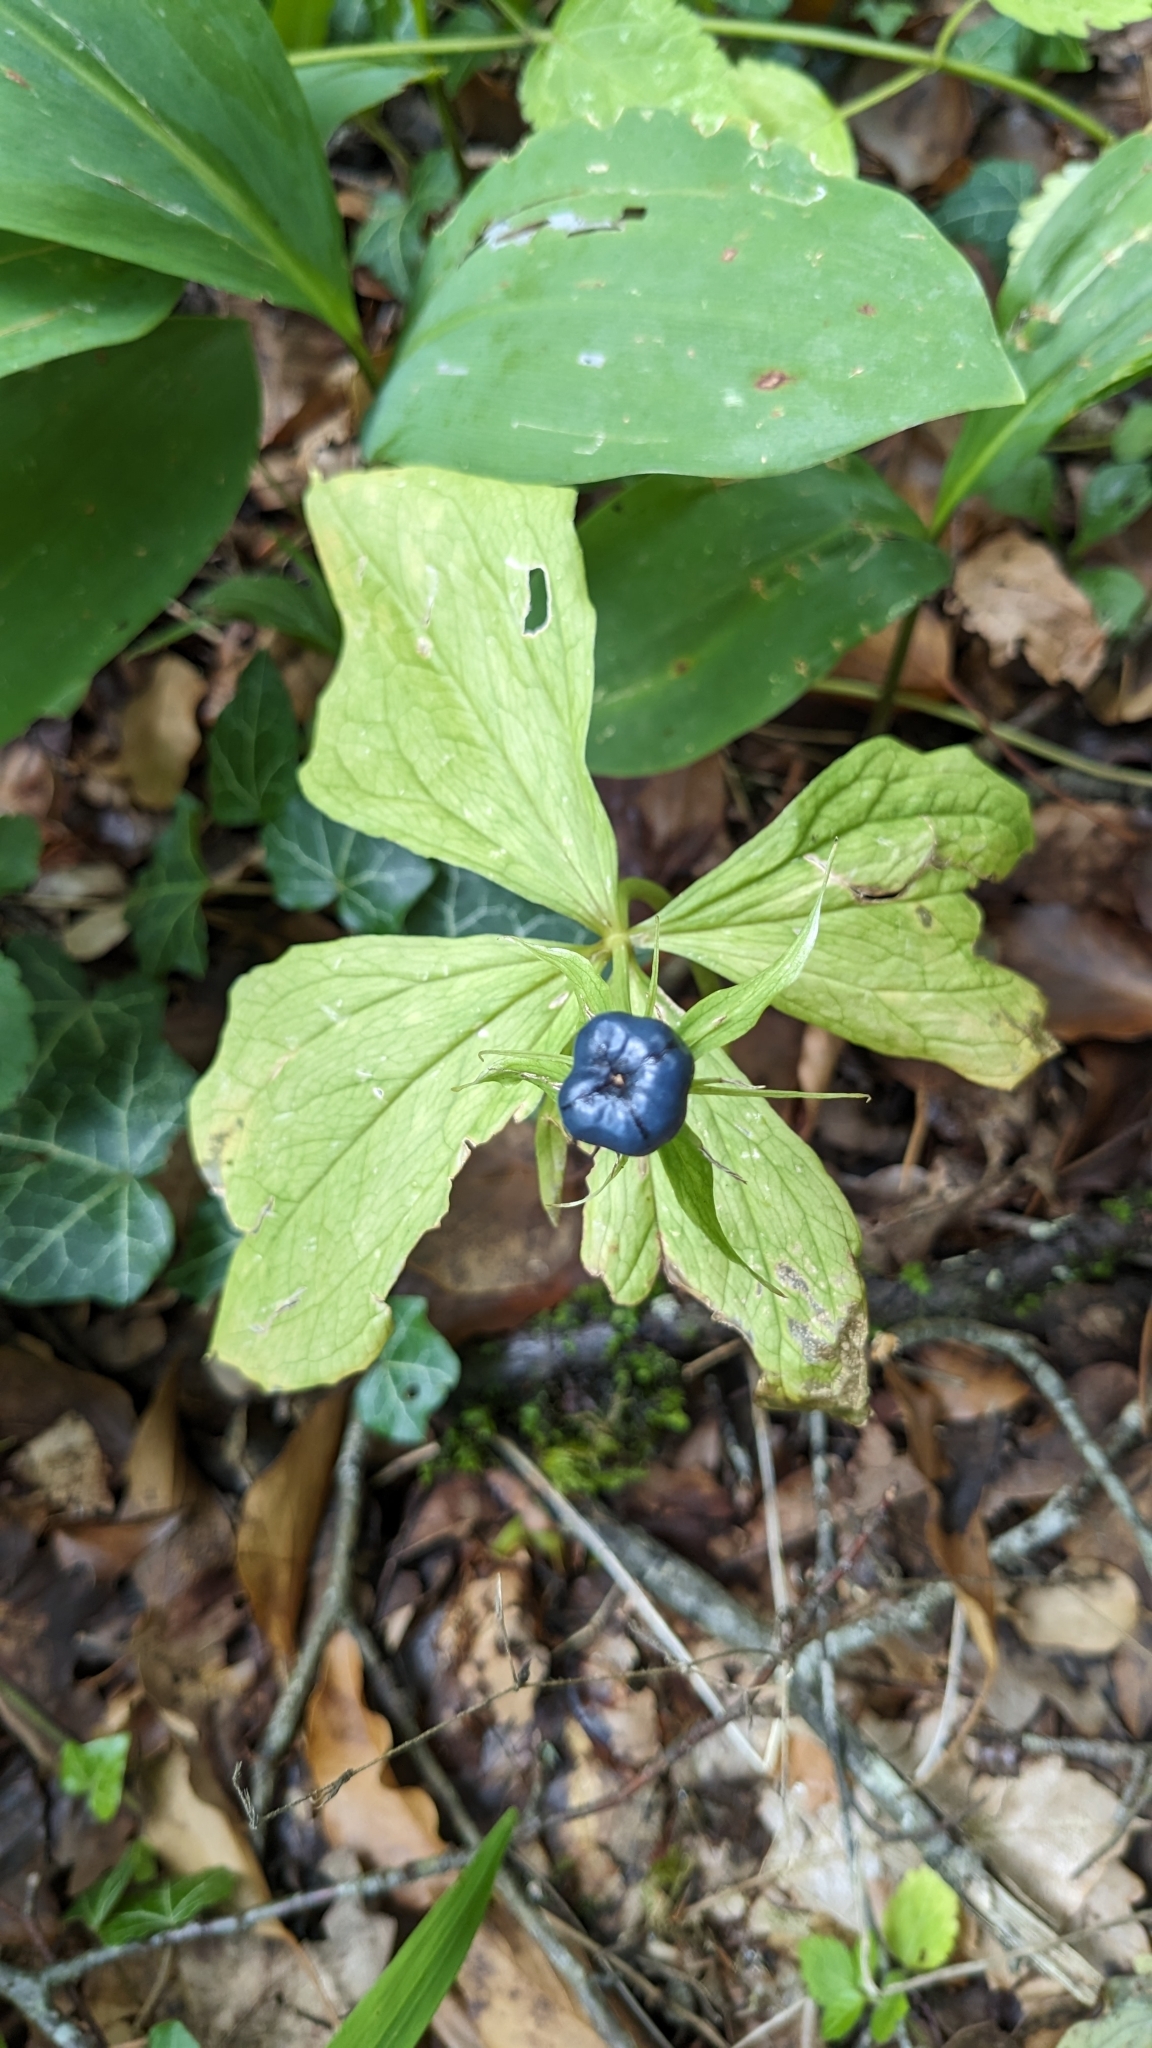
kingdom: Plantae
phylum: Tracheophyta
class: Liliopsida
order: Liliales
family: Melanthiaceae
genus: Paris
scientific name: Paris quadrifolia
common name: Herb-paris
